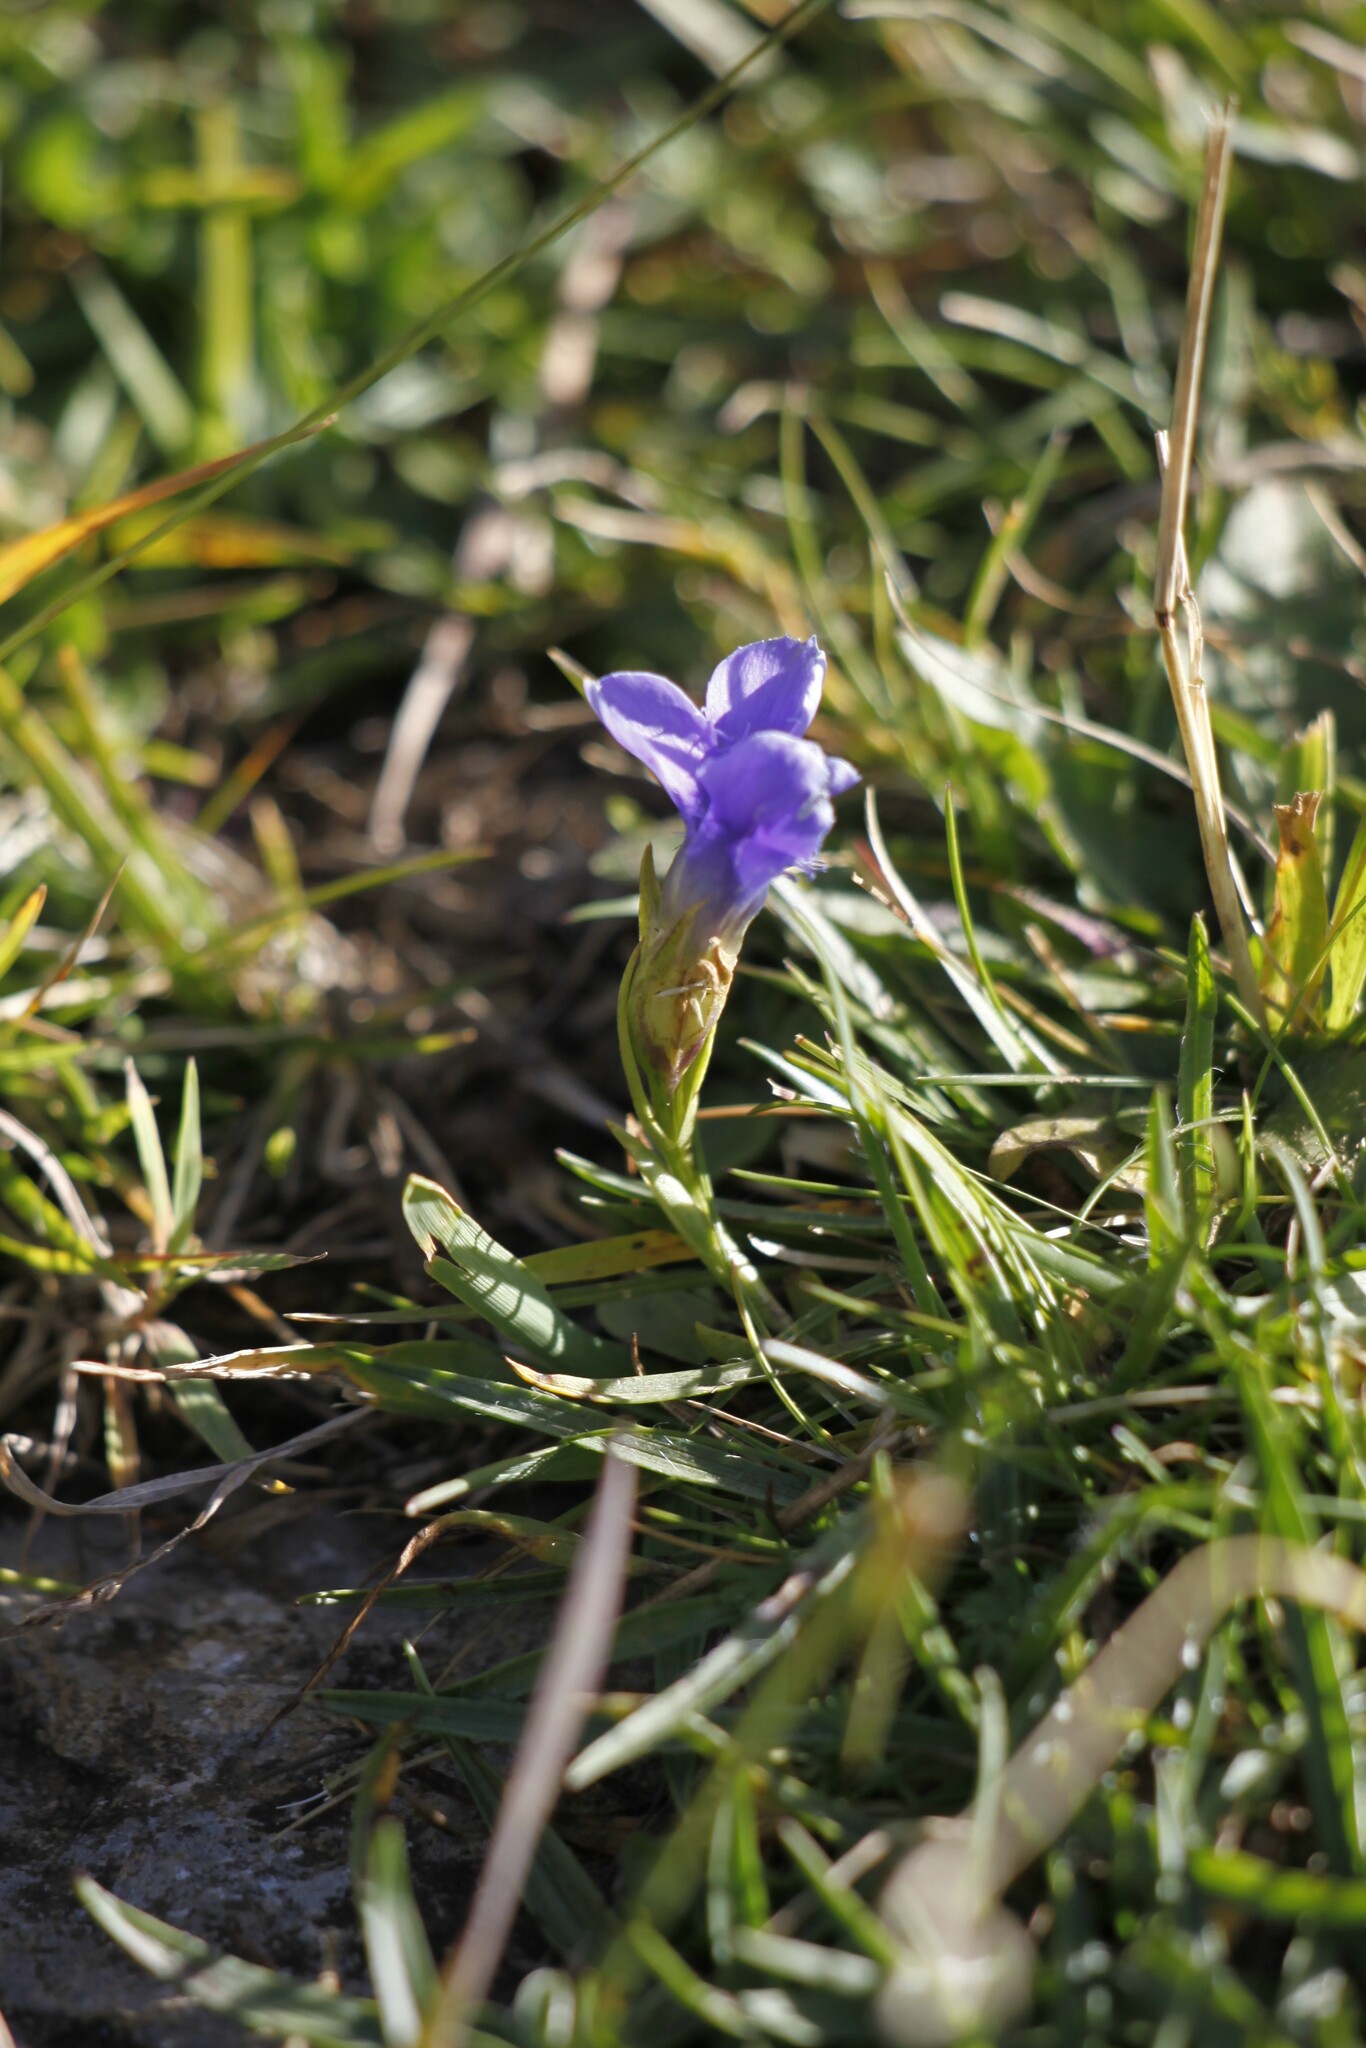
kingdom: Plantae
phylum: Tracheophyta
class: Magnoliopsida
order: Gentianales
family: Gentianaceae
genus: Gentianopsis
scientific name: Gentianopsis ciliata
